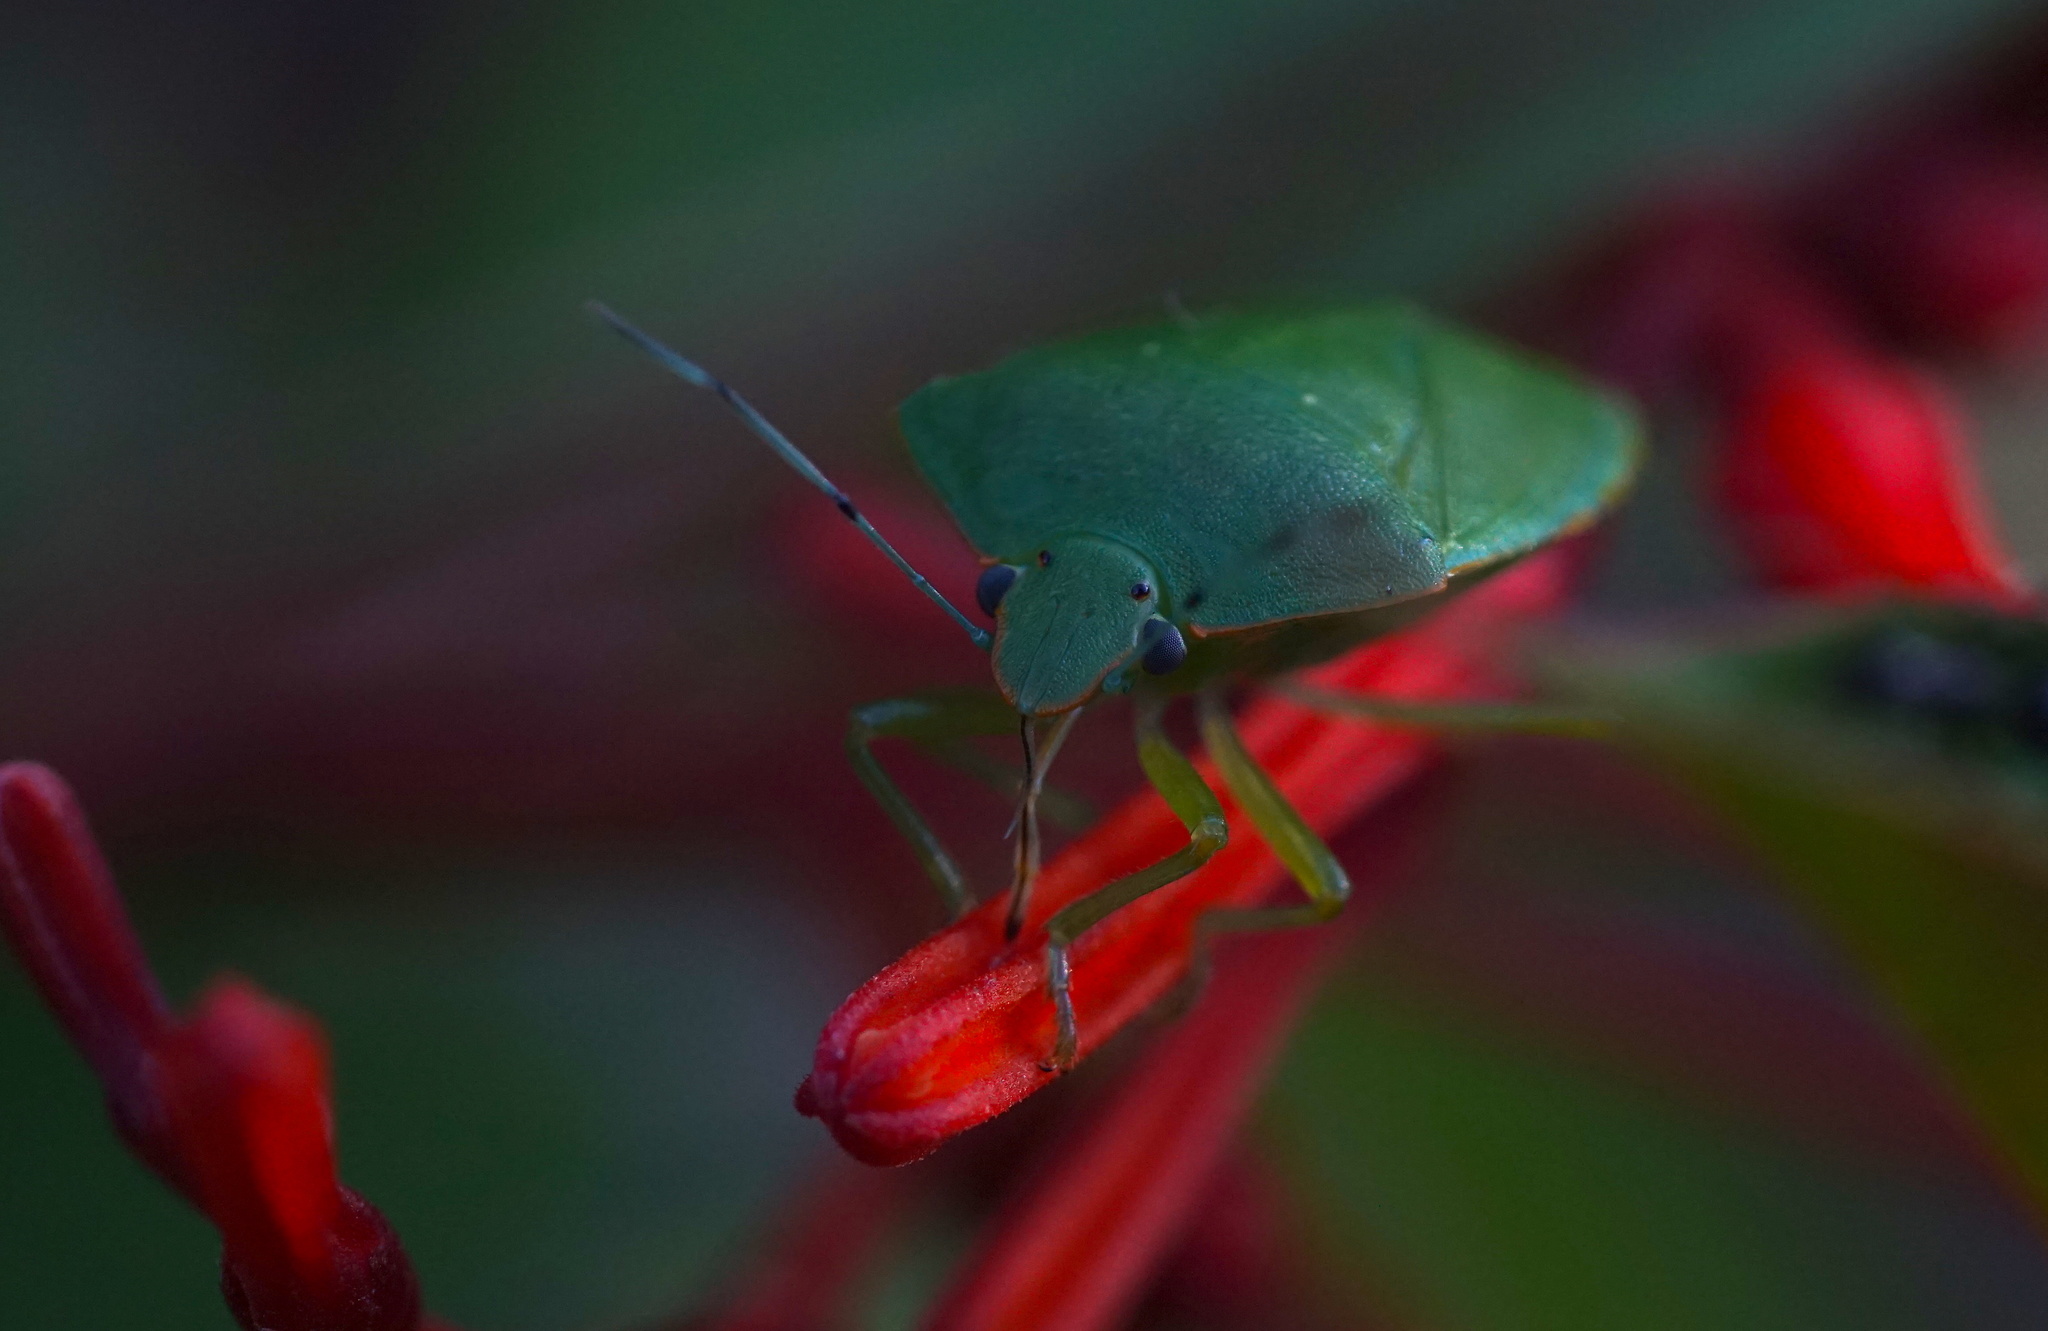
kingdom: Animalia
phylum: Arthropoda
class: Insecta
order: Hemiptera
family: Pentatomidae
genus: Acrosternum
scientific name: Acrosternum marginatum
